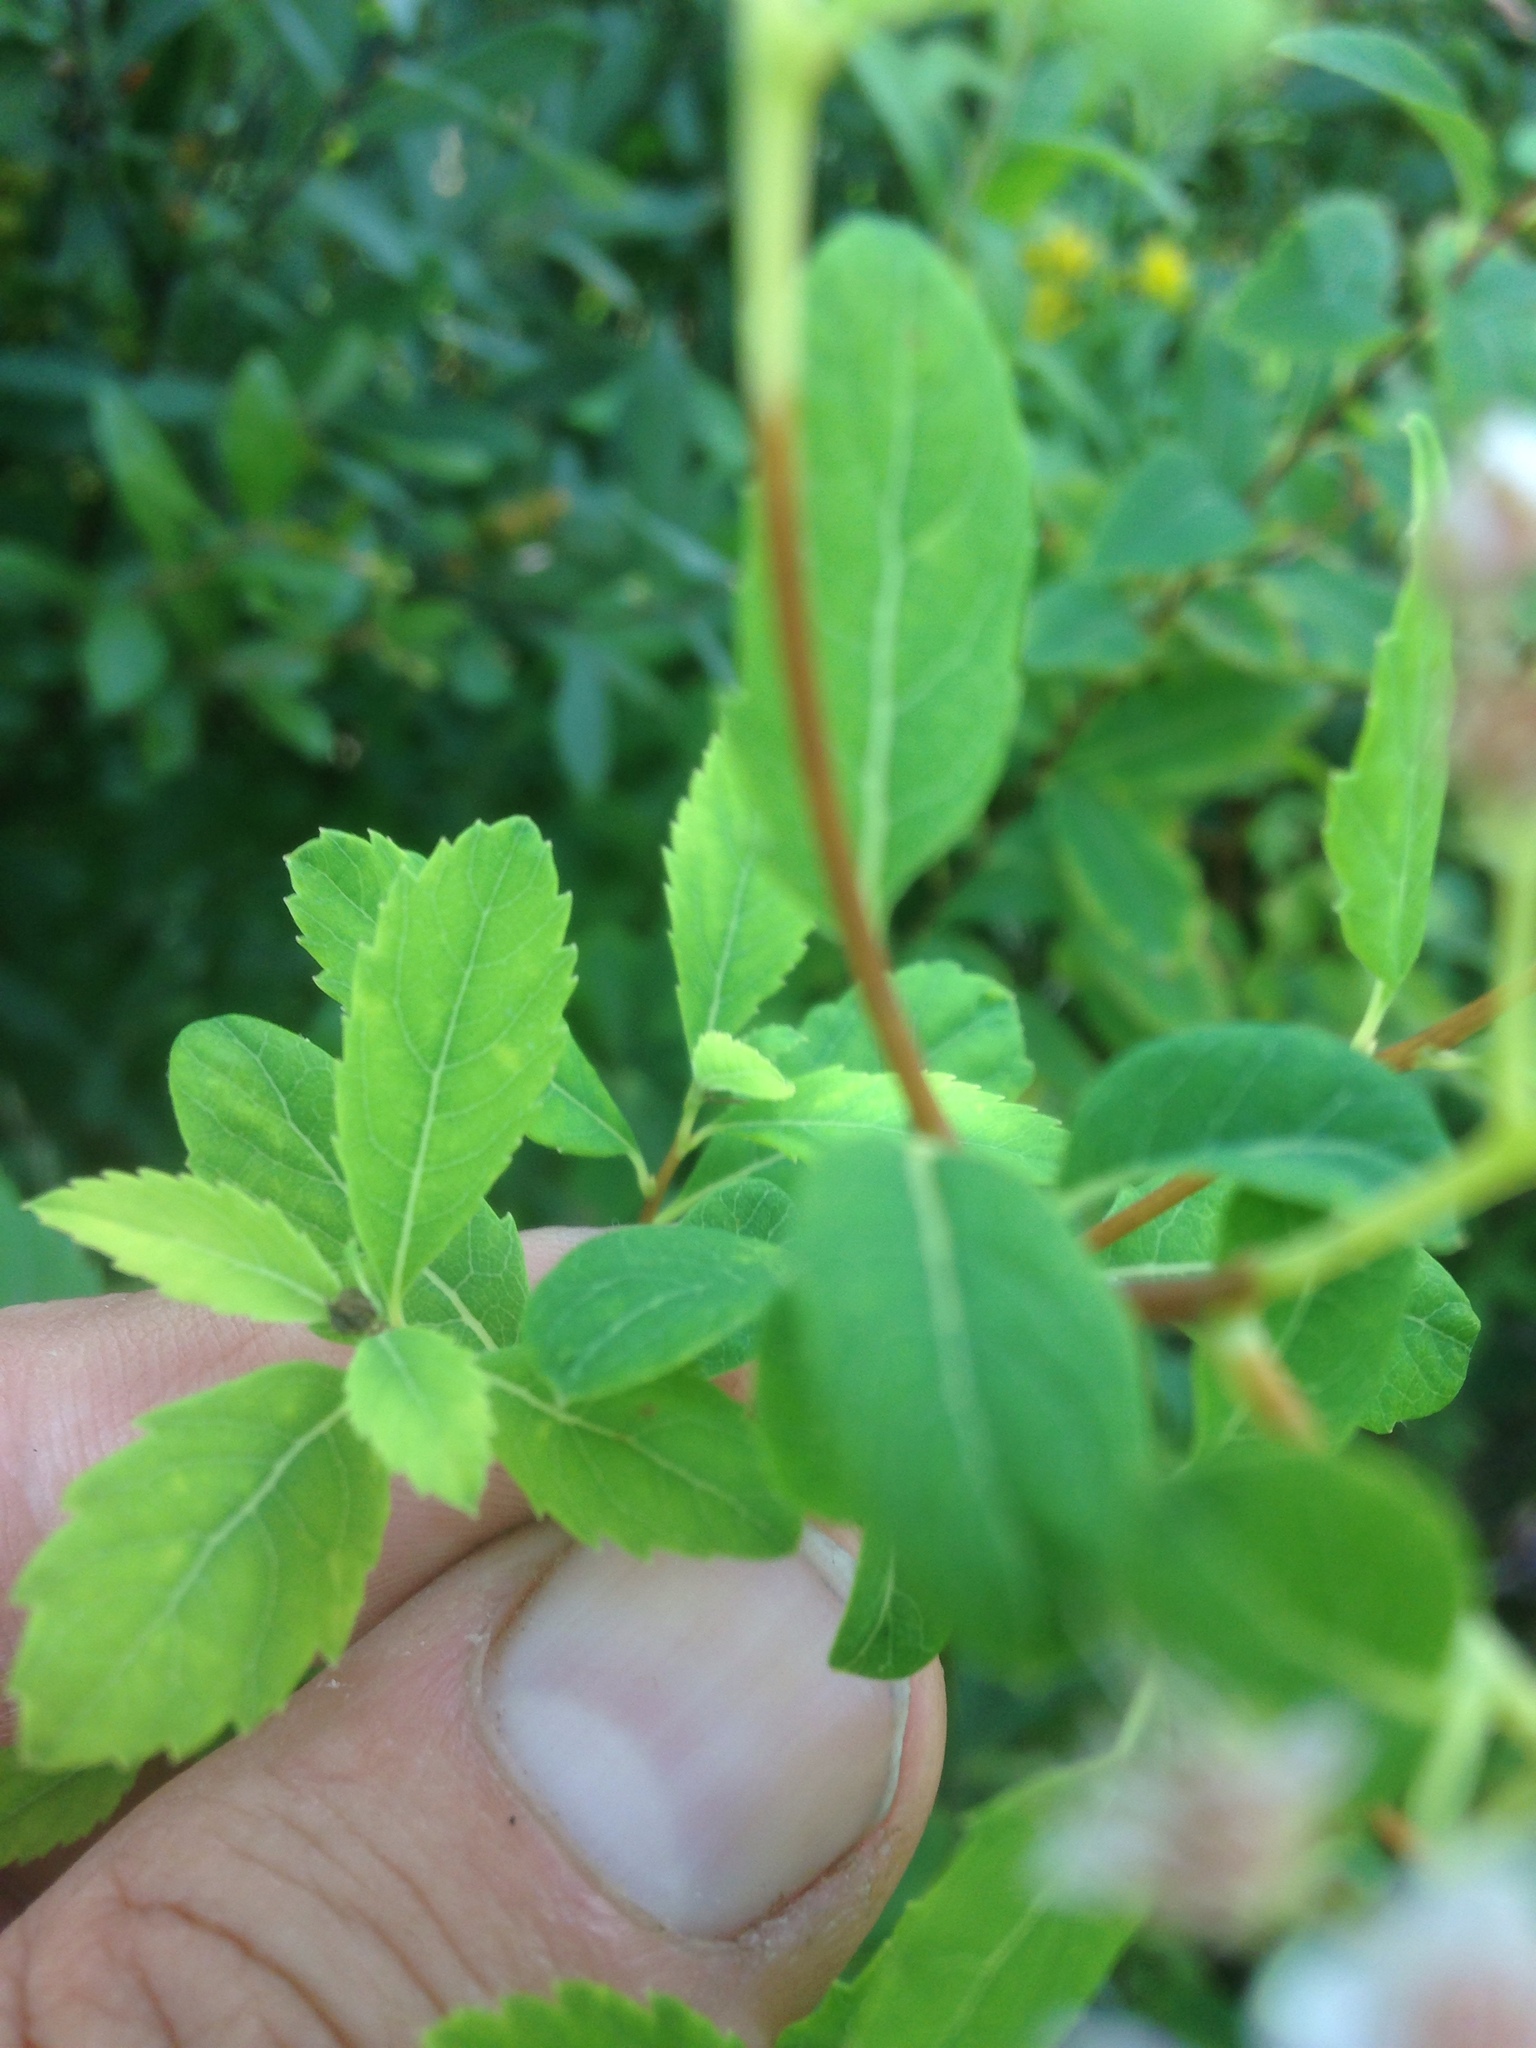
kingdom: Plantae
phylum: Tracheophyta
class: Magnoliopsida
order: Rosales
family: Rosaceae
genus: Spiraea
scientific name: Spiraea alba
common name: Pale bridewort
